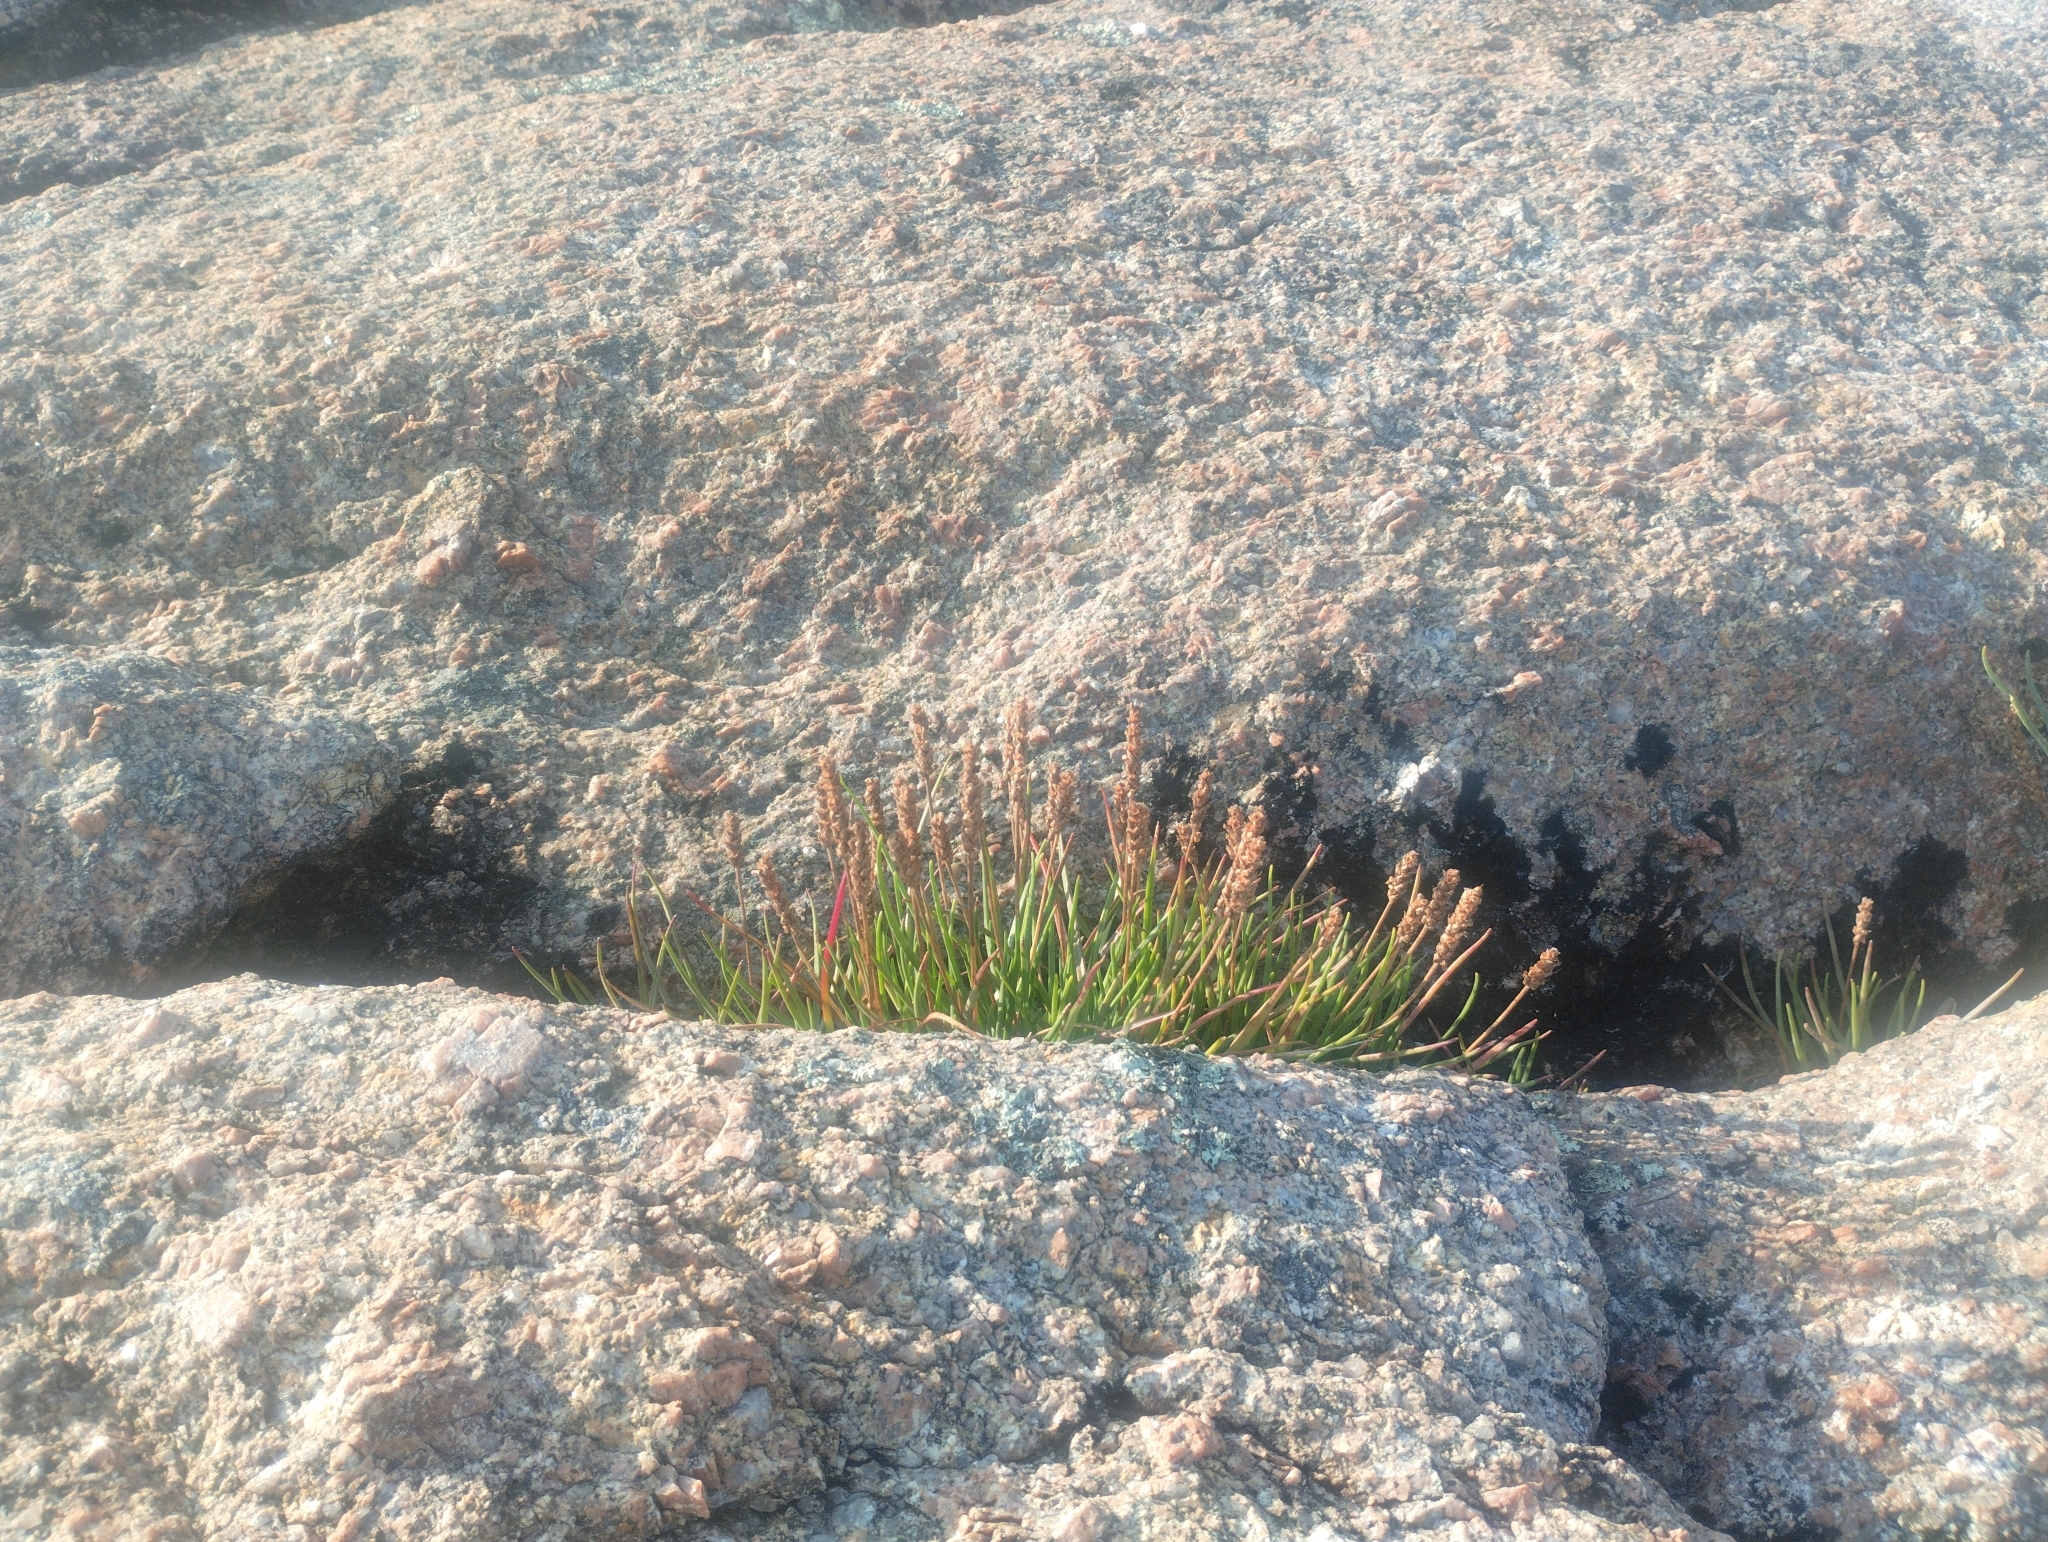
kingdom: Plantae
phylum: Tracheophyta
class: Magnoliopsida
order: Lamiales
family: Plantaginaceae
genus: Plantago
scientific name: Plantago maritima
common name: Sea plantain
